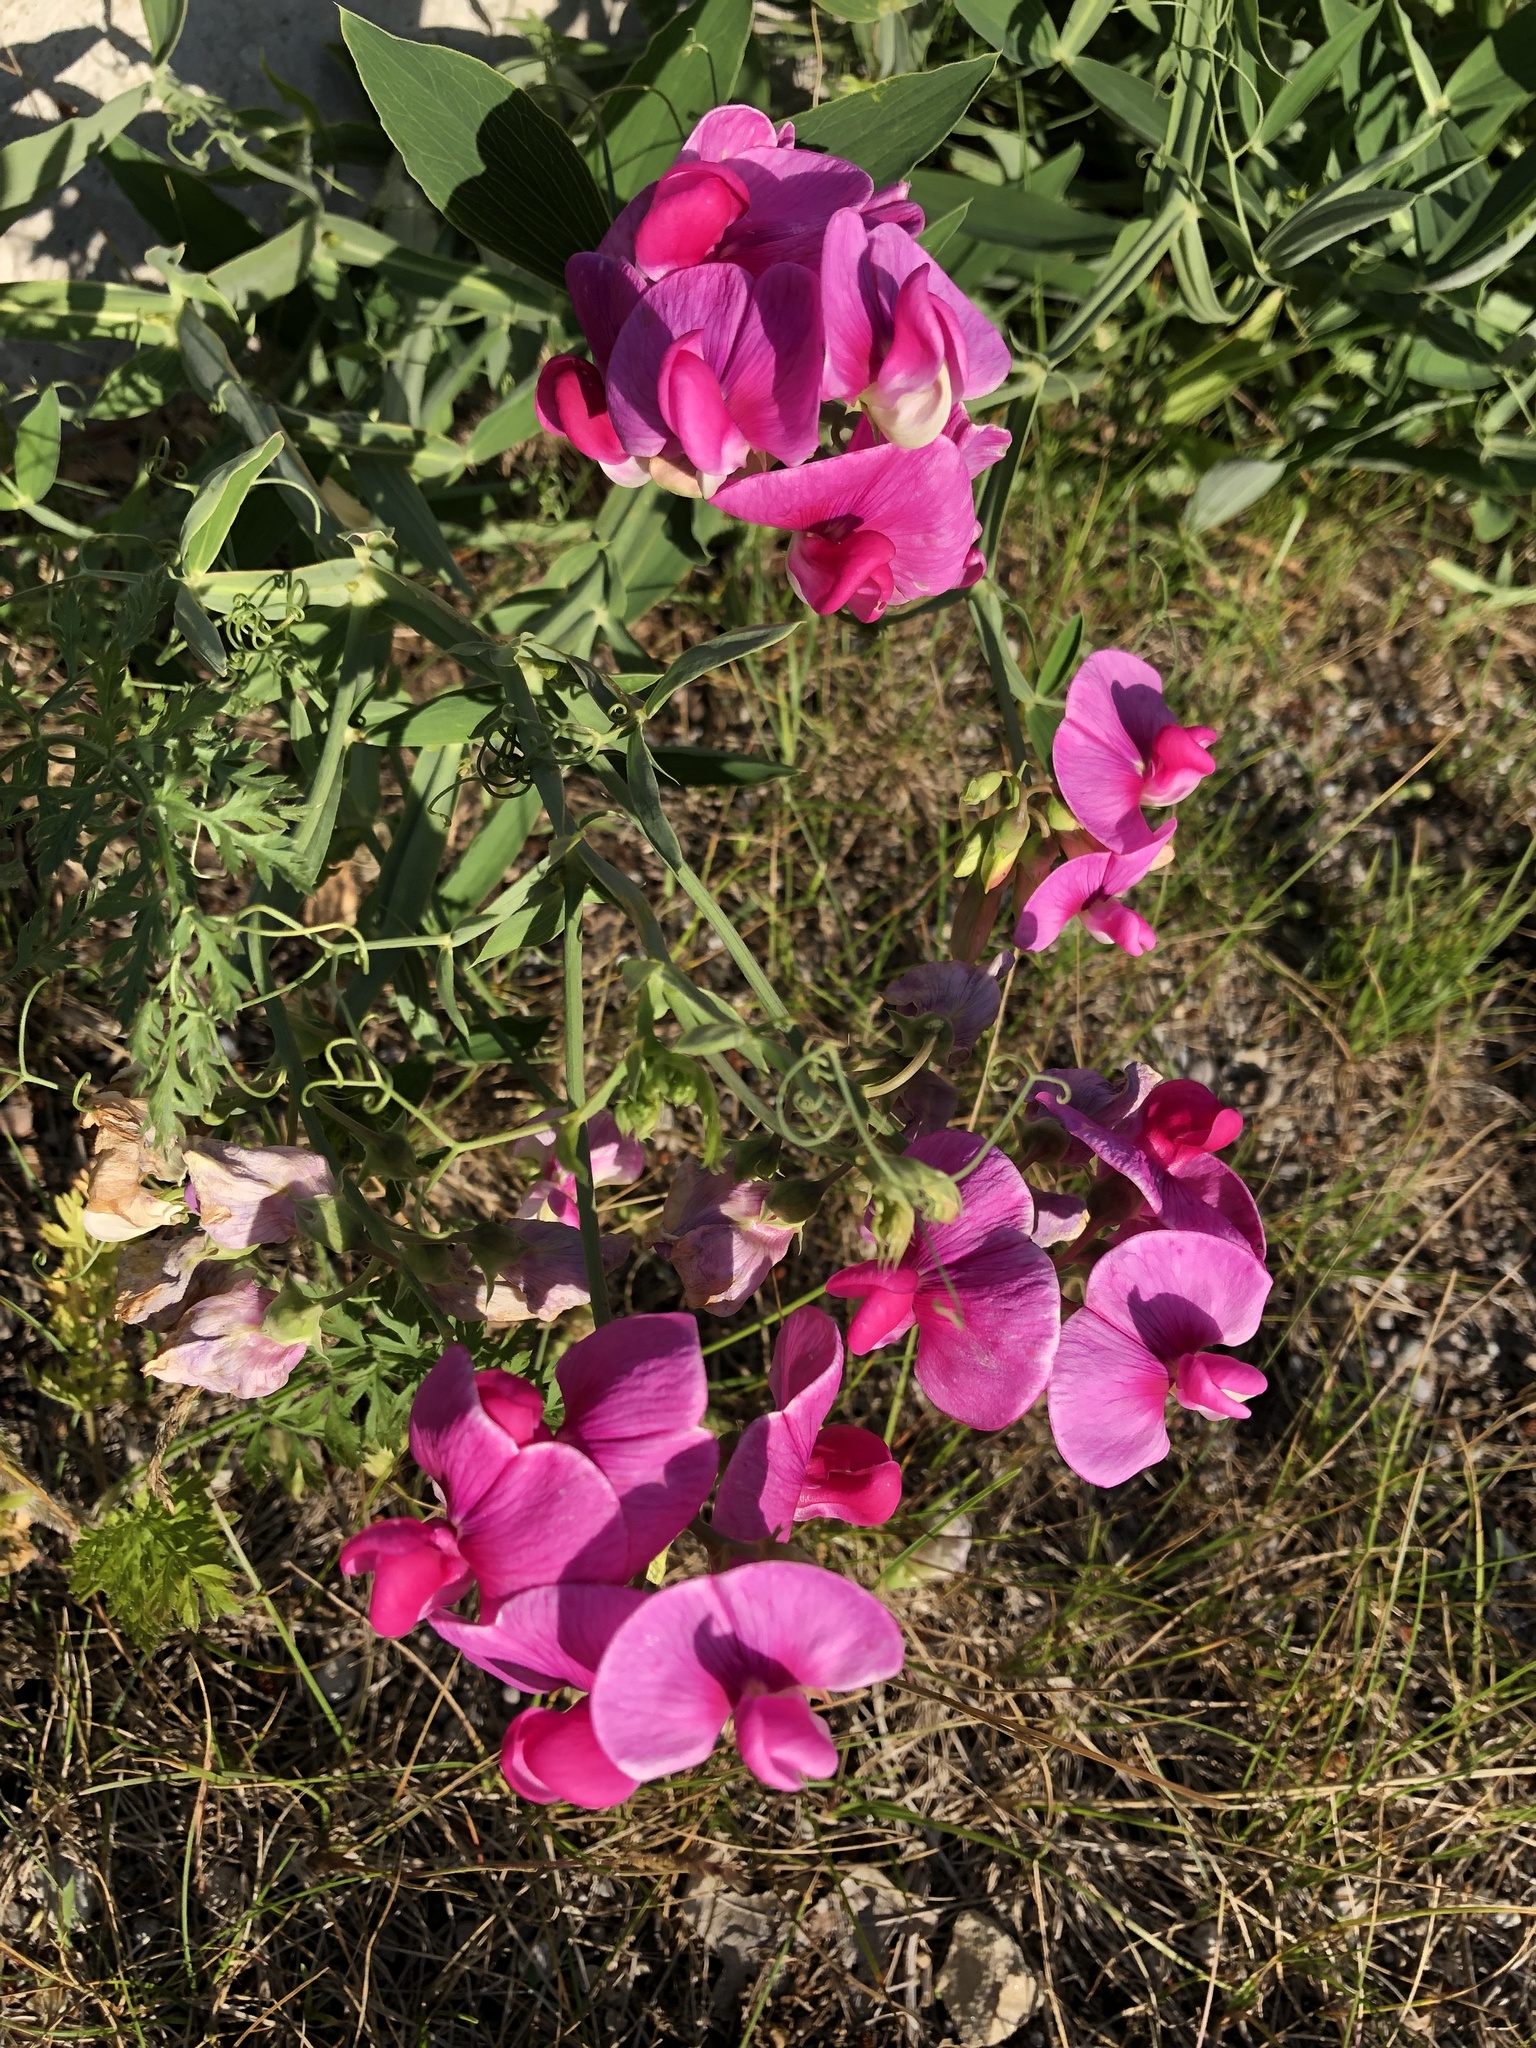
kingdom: Plantae
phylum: Tracheophyta
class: Magnoliopsida
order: Fabales
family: Fabaceae
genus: Lathyrus
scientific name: Lathyrus latifolius
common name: Perennial pea
